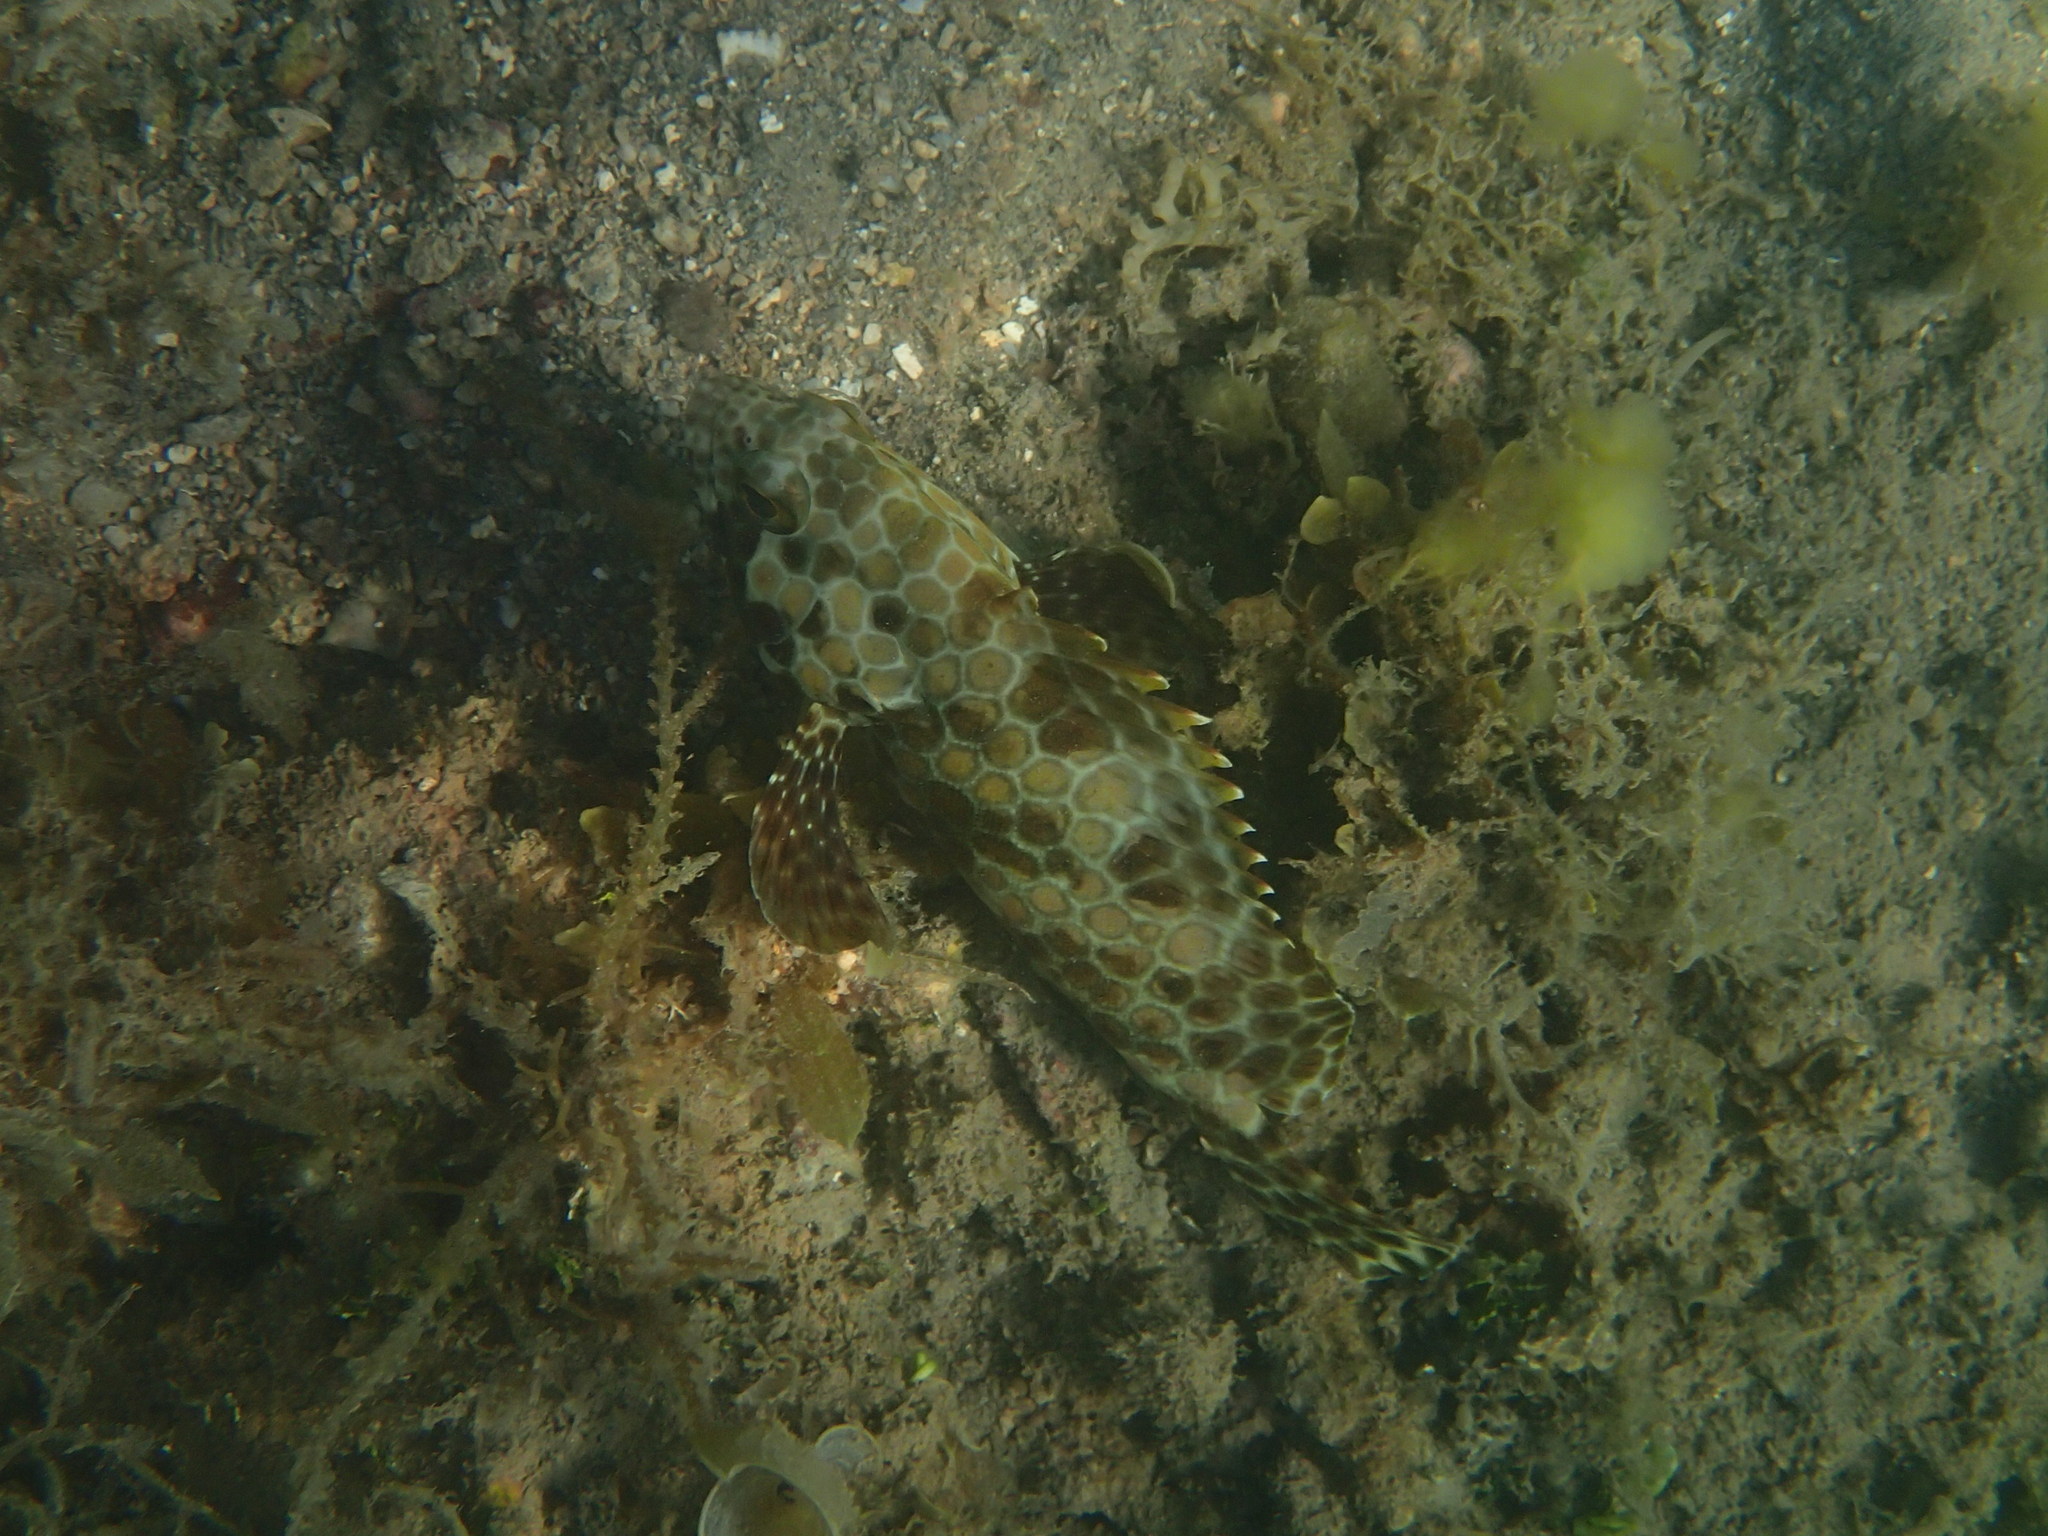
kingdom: Animalia
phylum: Chordata
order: Perciformes
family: Serranidae
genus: Epinephelus
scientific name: Epinephelus quoyanus
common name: Longfin grouper
